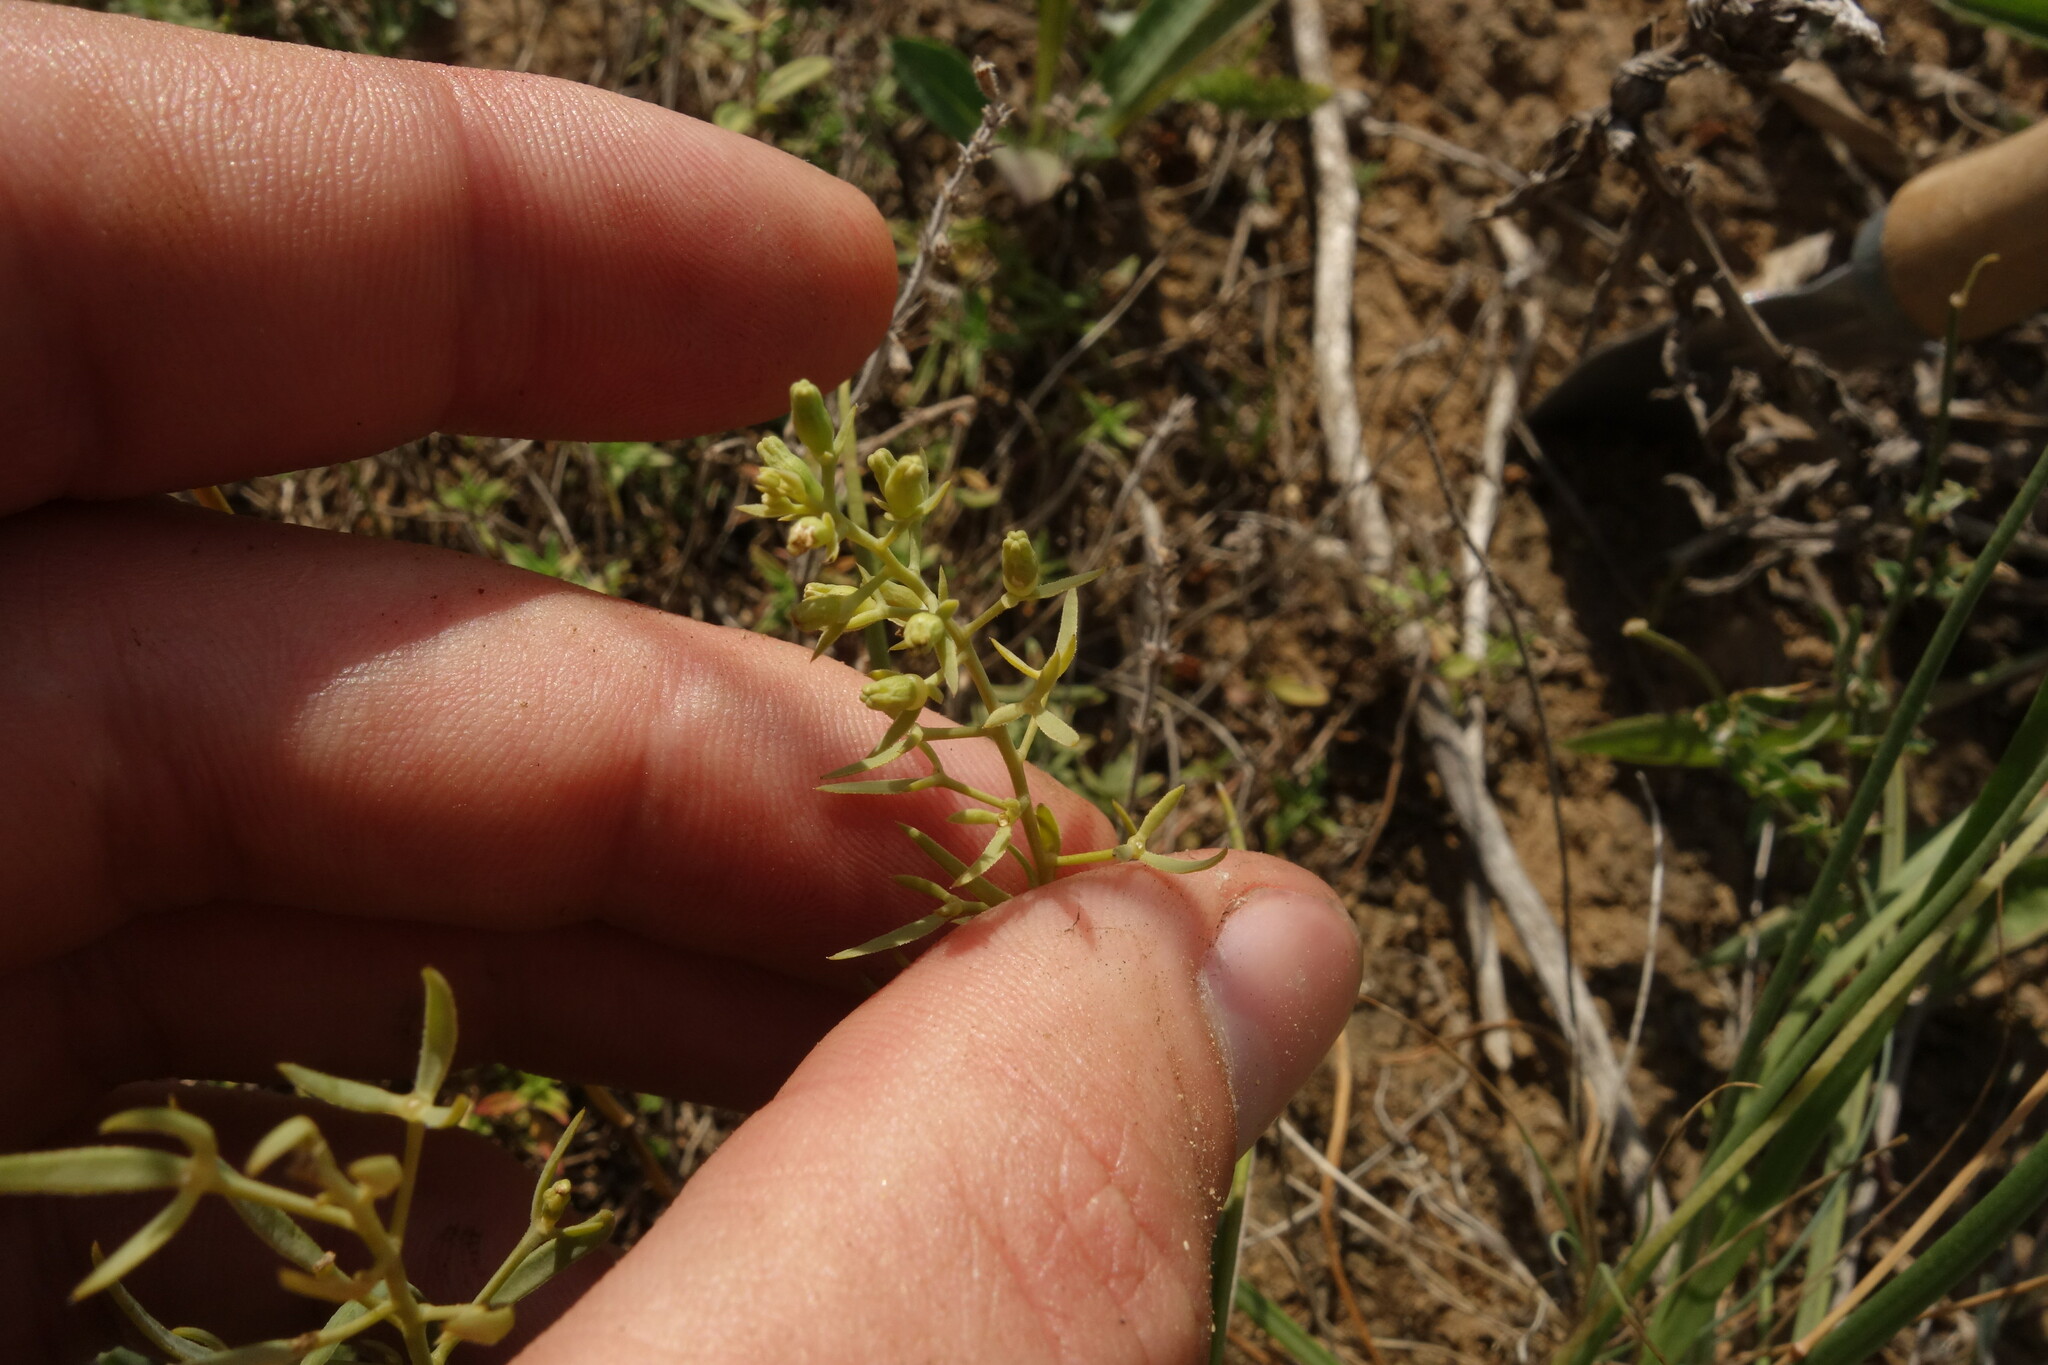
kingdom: Plantae
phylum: Tracheophyta
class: Magnoliopsida
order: Santalales
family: Thesiaceae
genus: Thesium
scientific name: Thesium ramosum
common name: Field thesium
